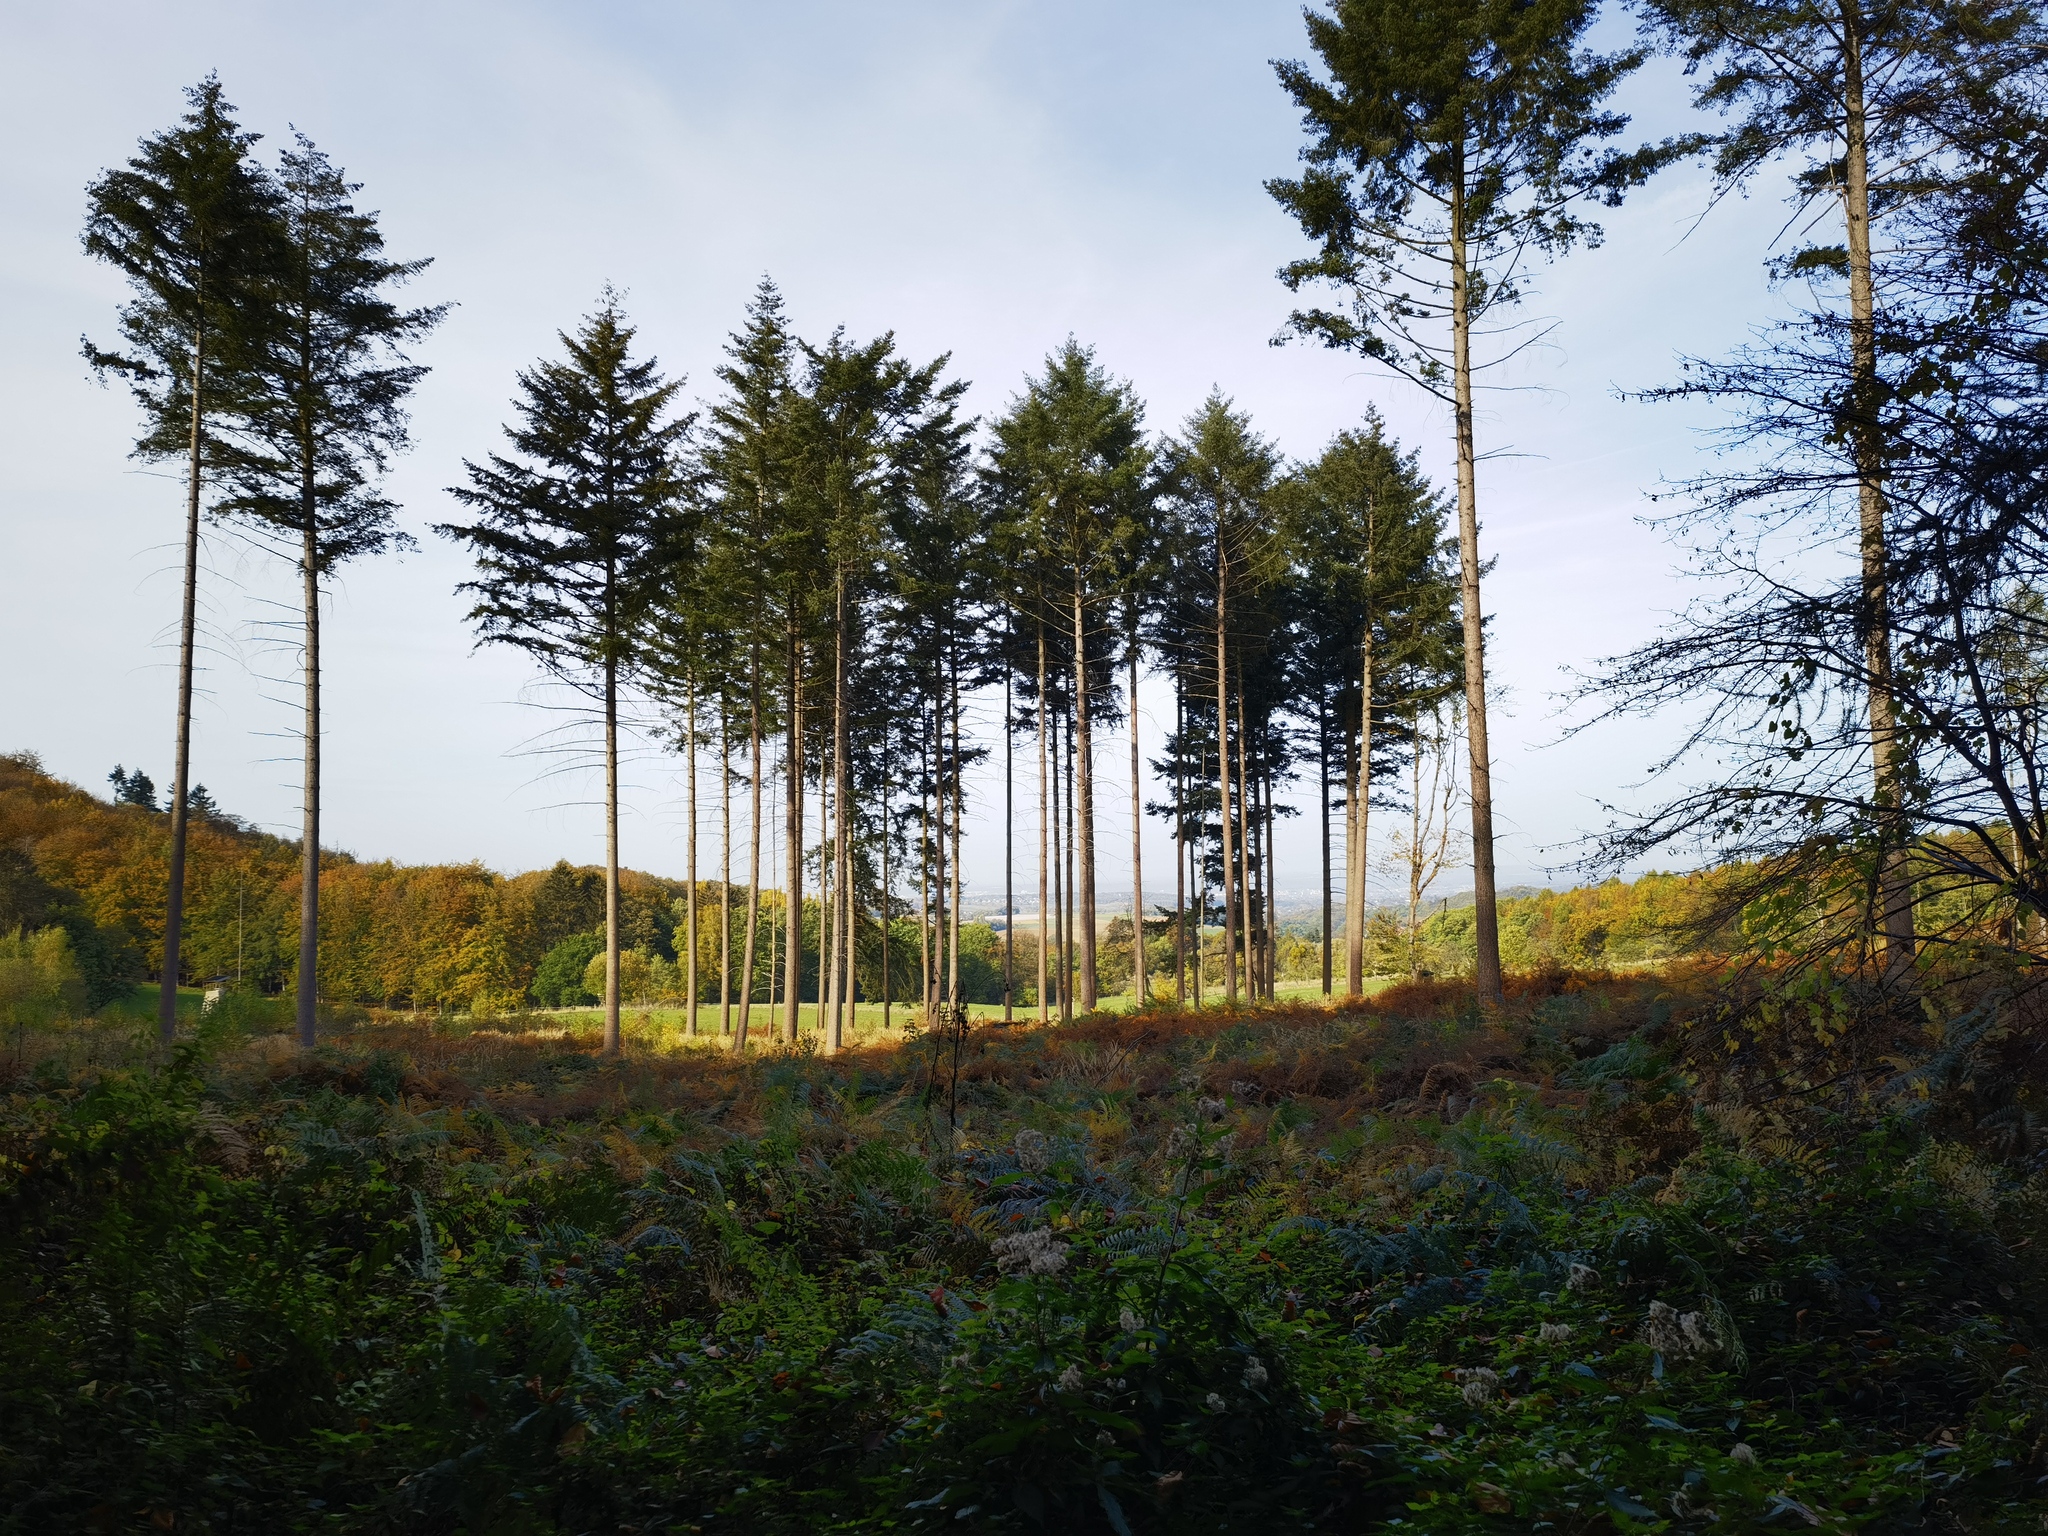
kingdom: Plantae
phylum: Tracheophyta
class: Pinopsida
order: Pinales
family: Pinaceae
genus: Picea
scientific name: Picea abies
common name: Norway spruce
